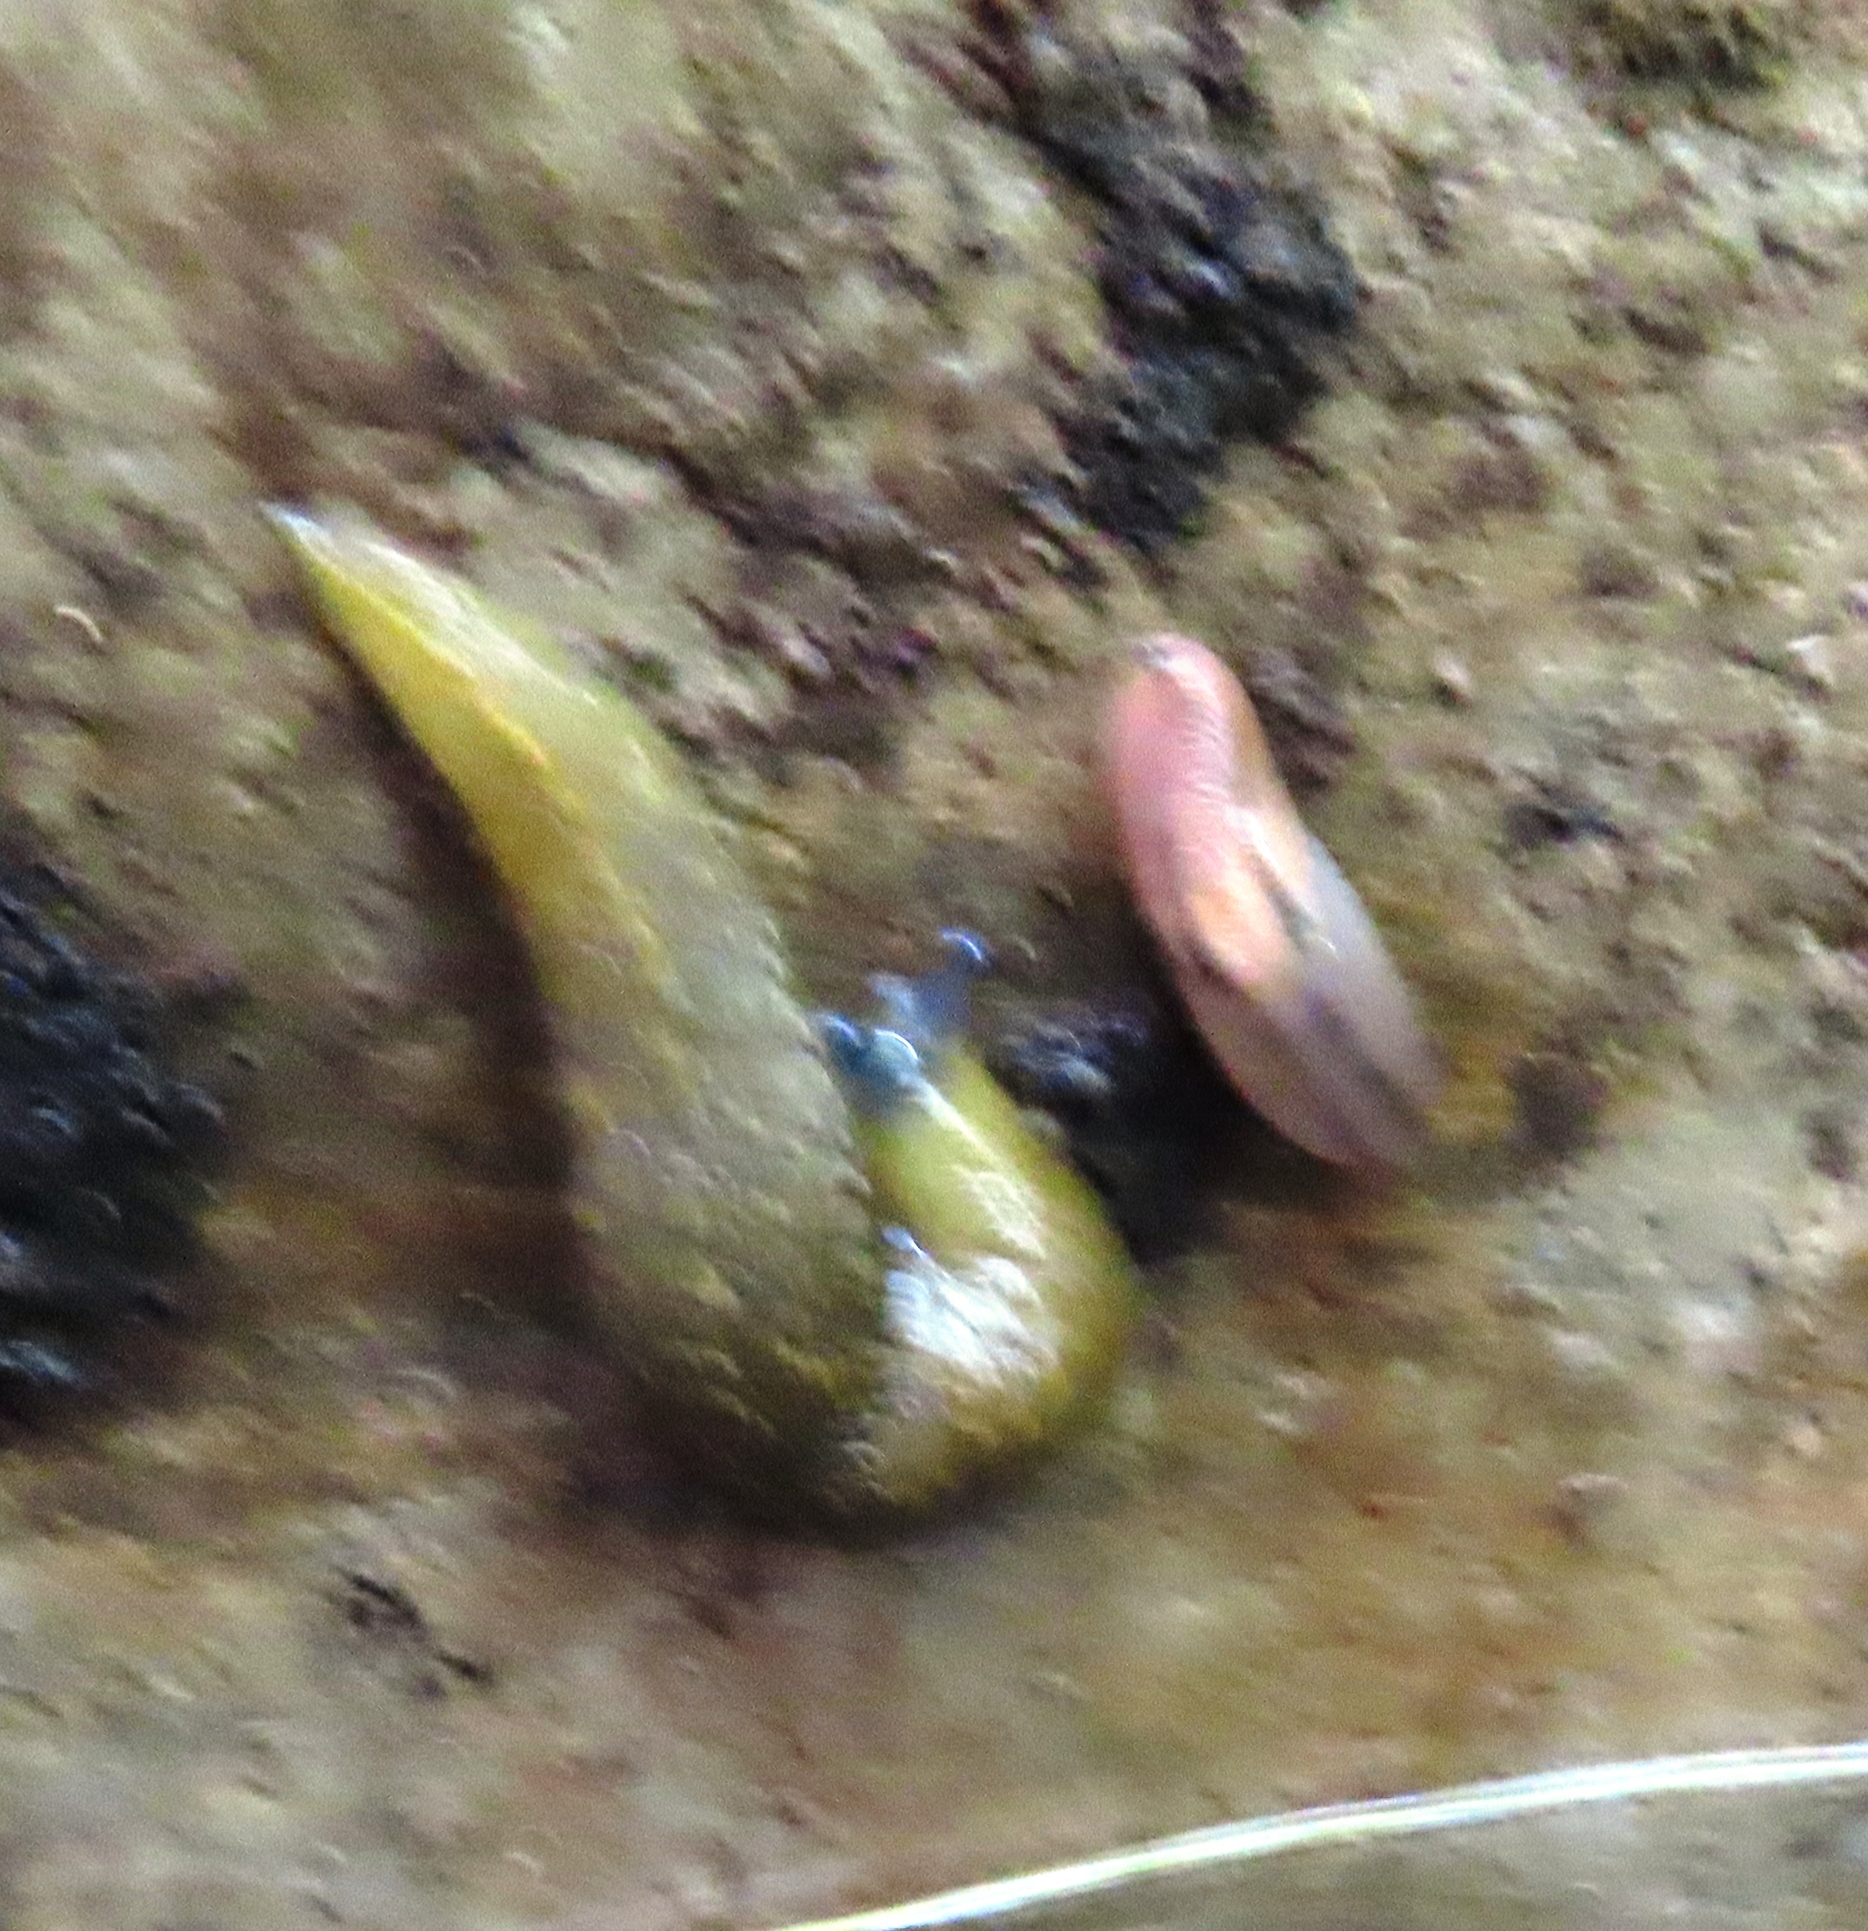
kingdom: Animalia
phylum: Mollusca
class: Gastropoda
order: Stylommatophora
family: Limacidae
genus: Limacus
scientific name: Limacus flavus
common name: Yellow gardenslug
